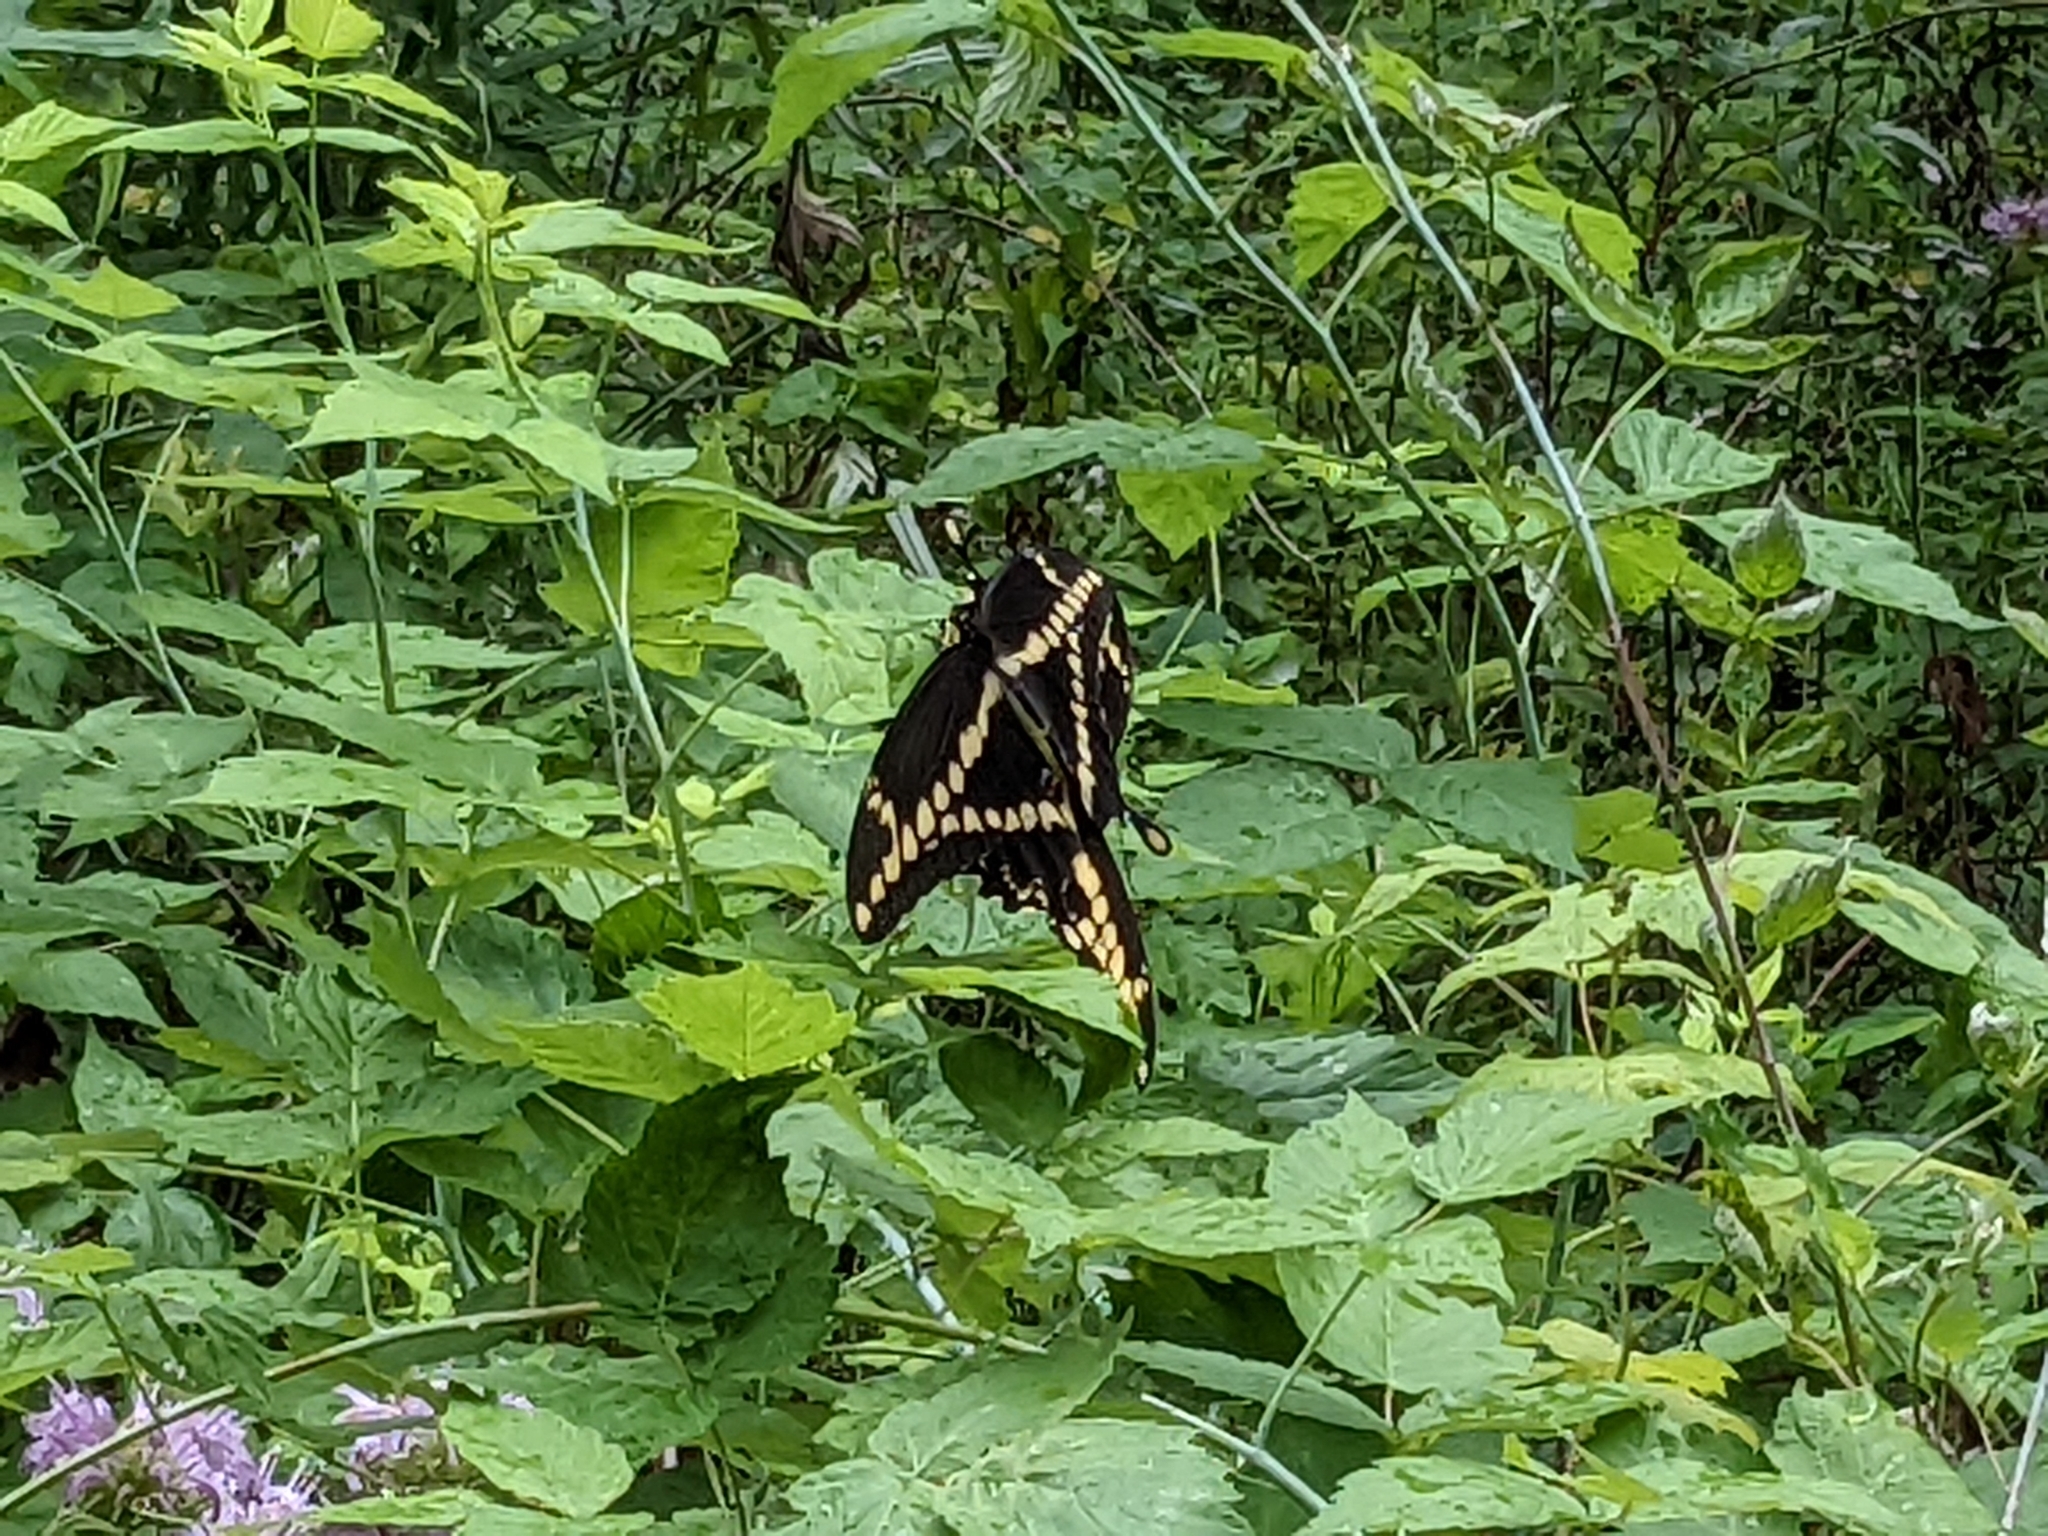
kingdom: Animalia
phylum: Arthropoda
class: Insecta
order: Lepidoptera
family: Papilionidae
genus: Papilio
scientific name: Papilio cresphontes
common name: Giant swallowtail
